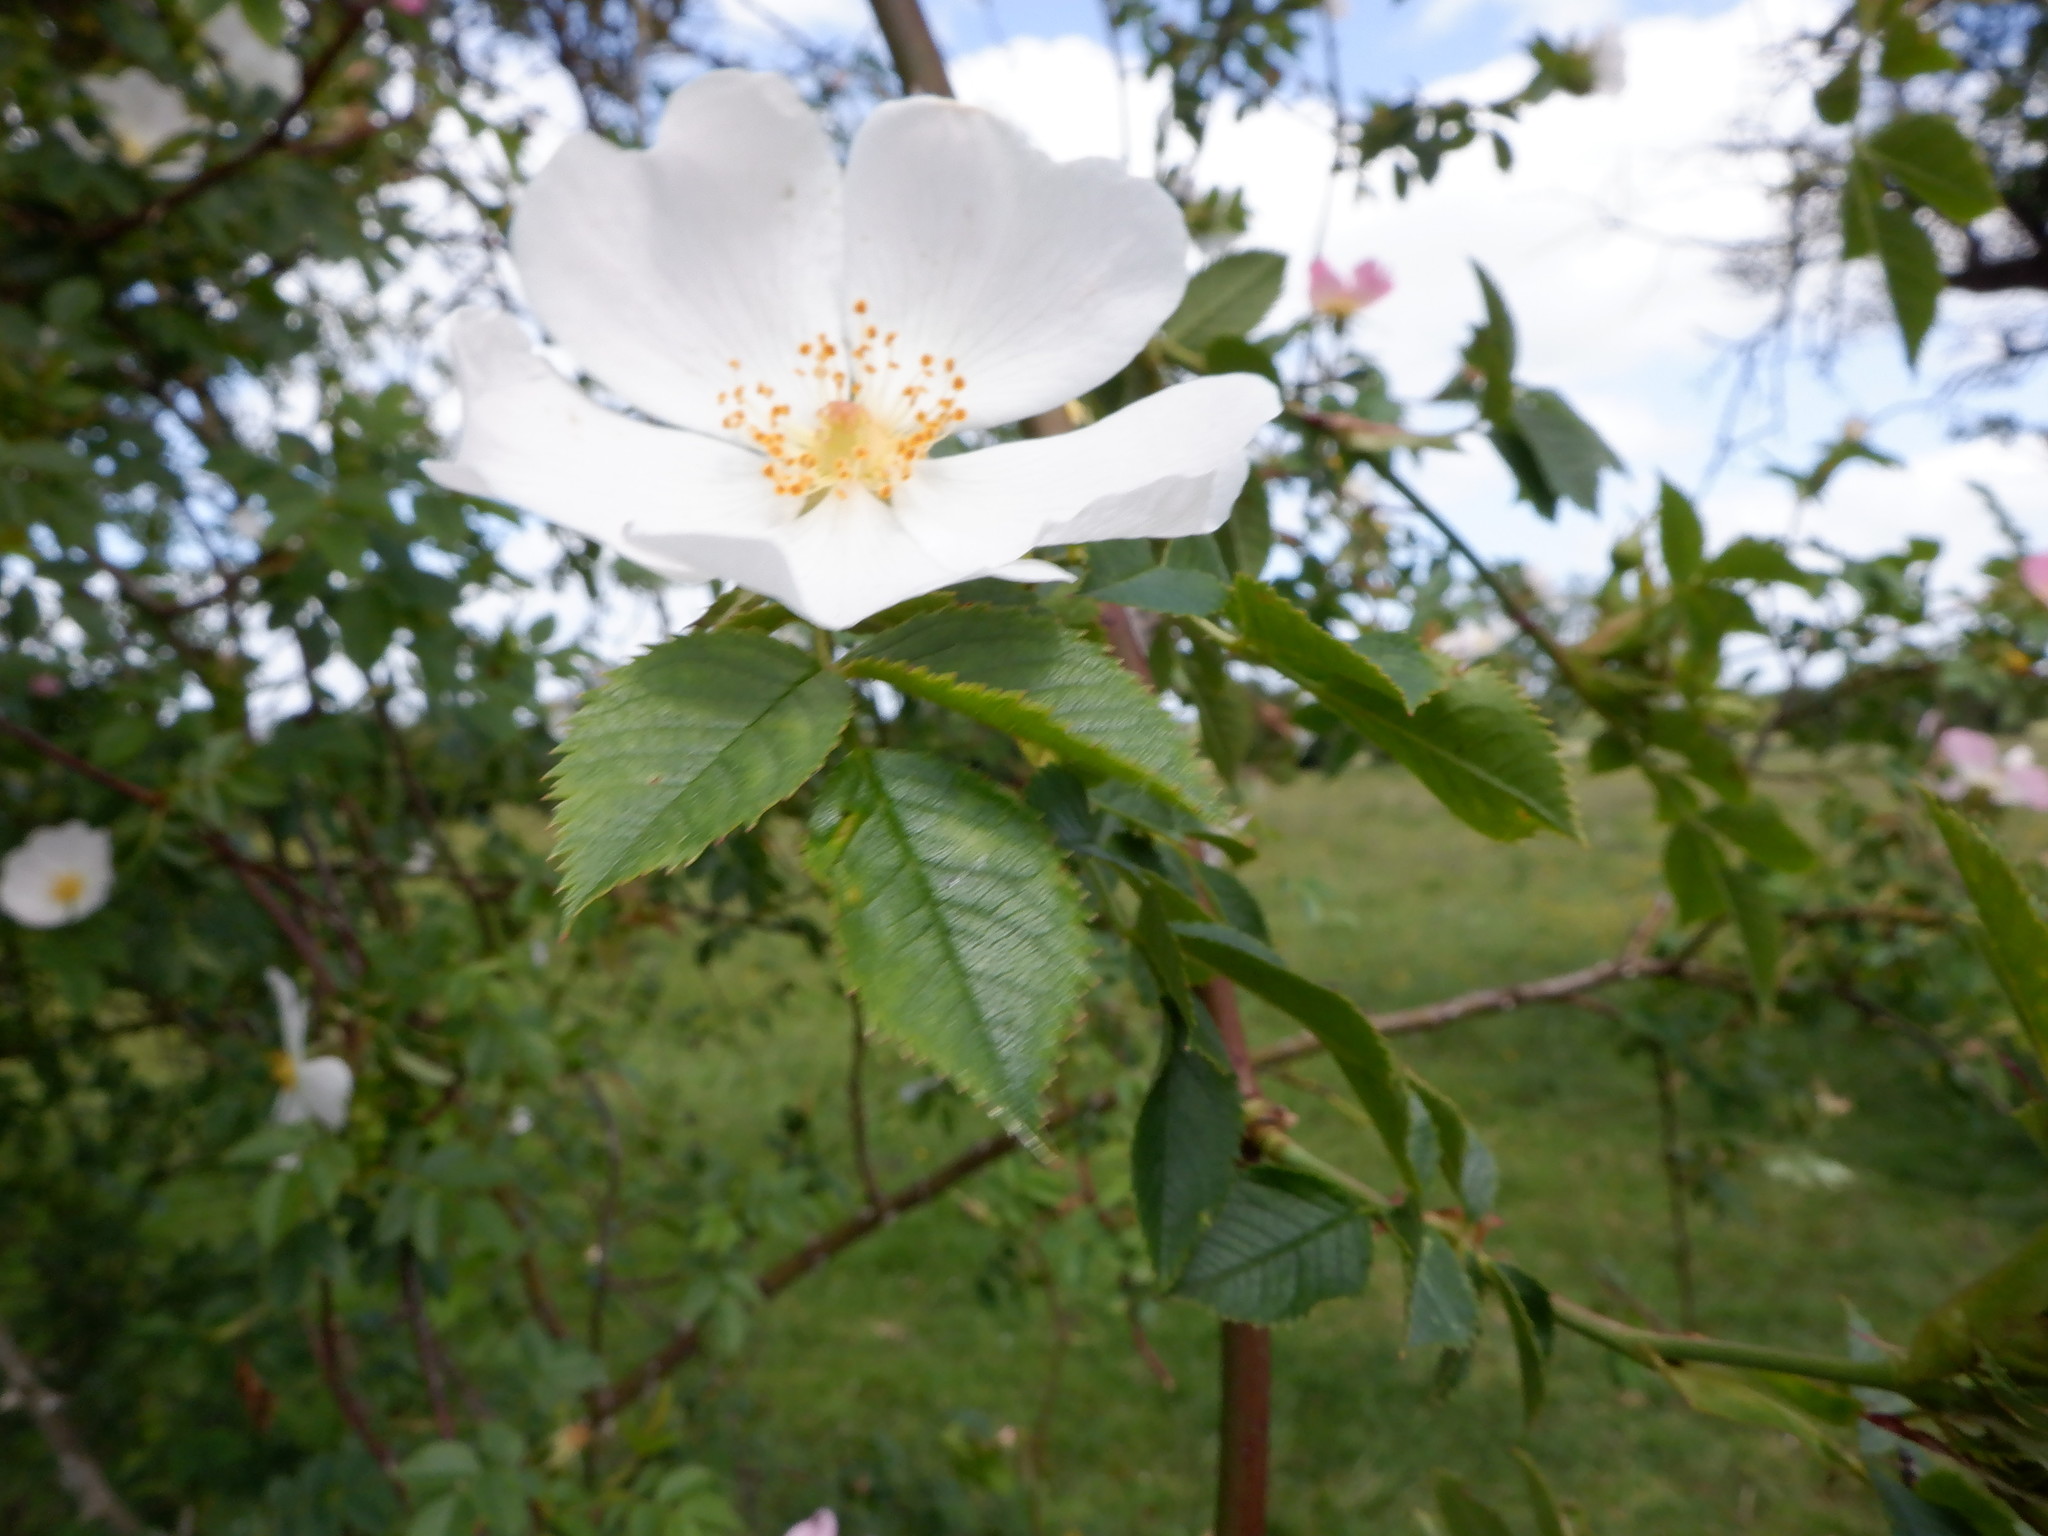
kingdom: Plantae
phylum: Tracheophyta
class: Magnoliopsida
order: Rosales
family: Rosaceae
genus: Rosa
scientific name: Rosa canina
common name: Dog rose
